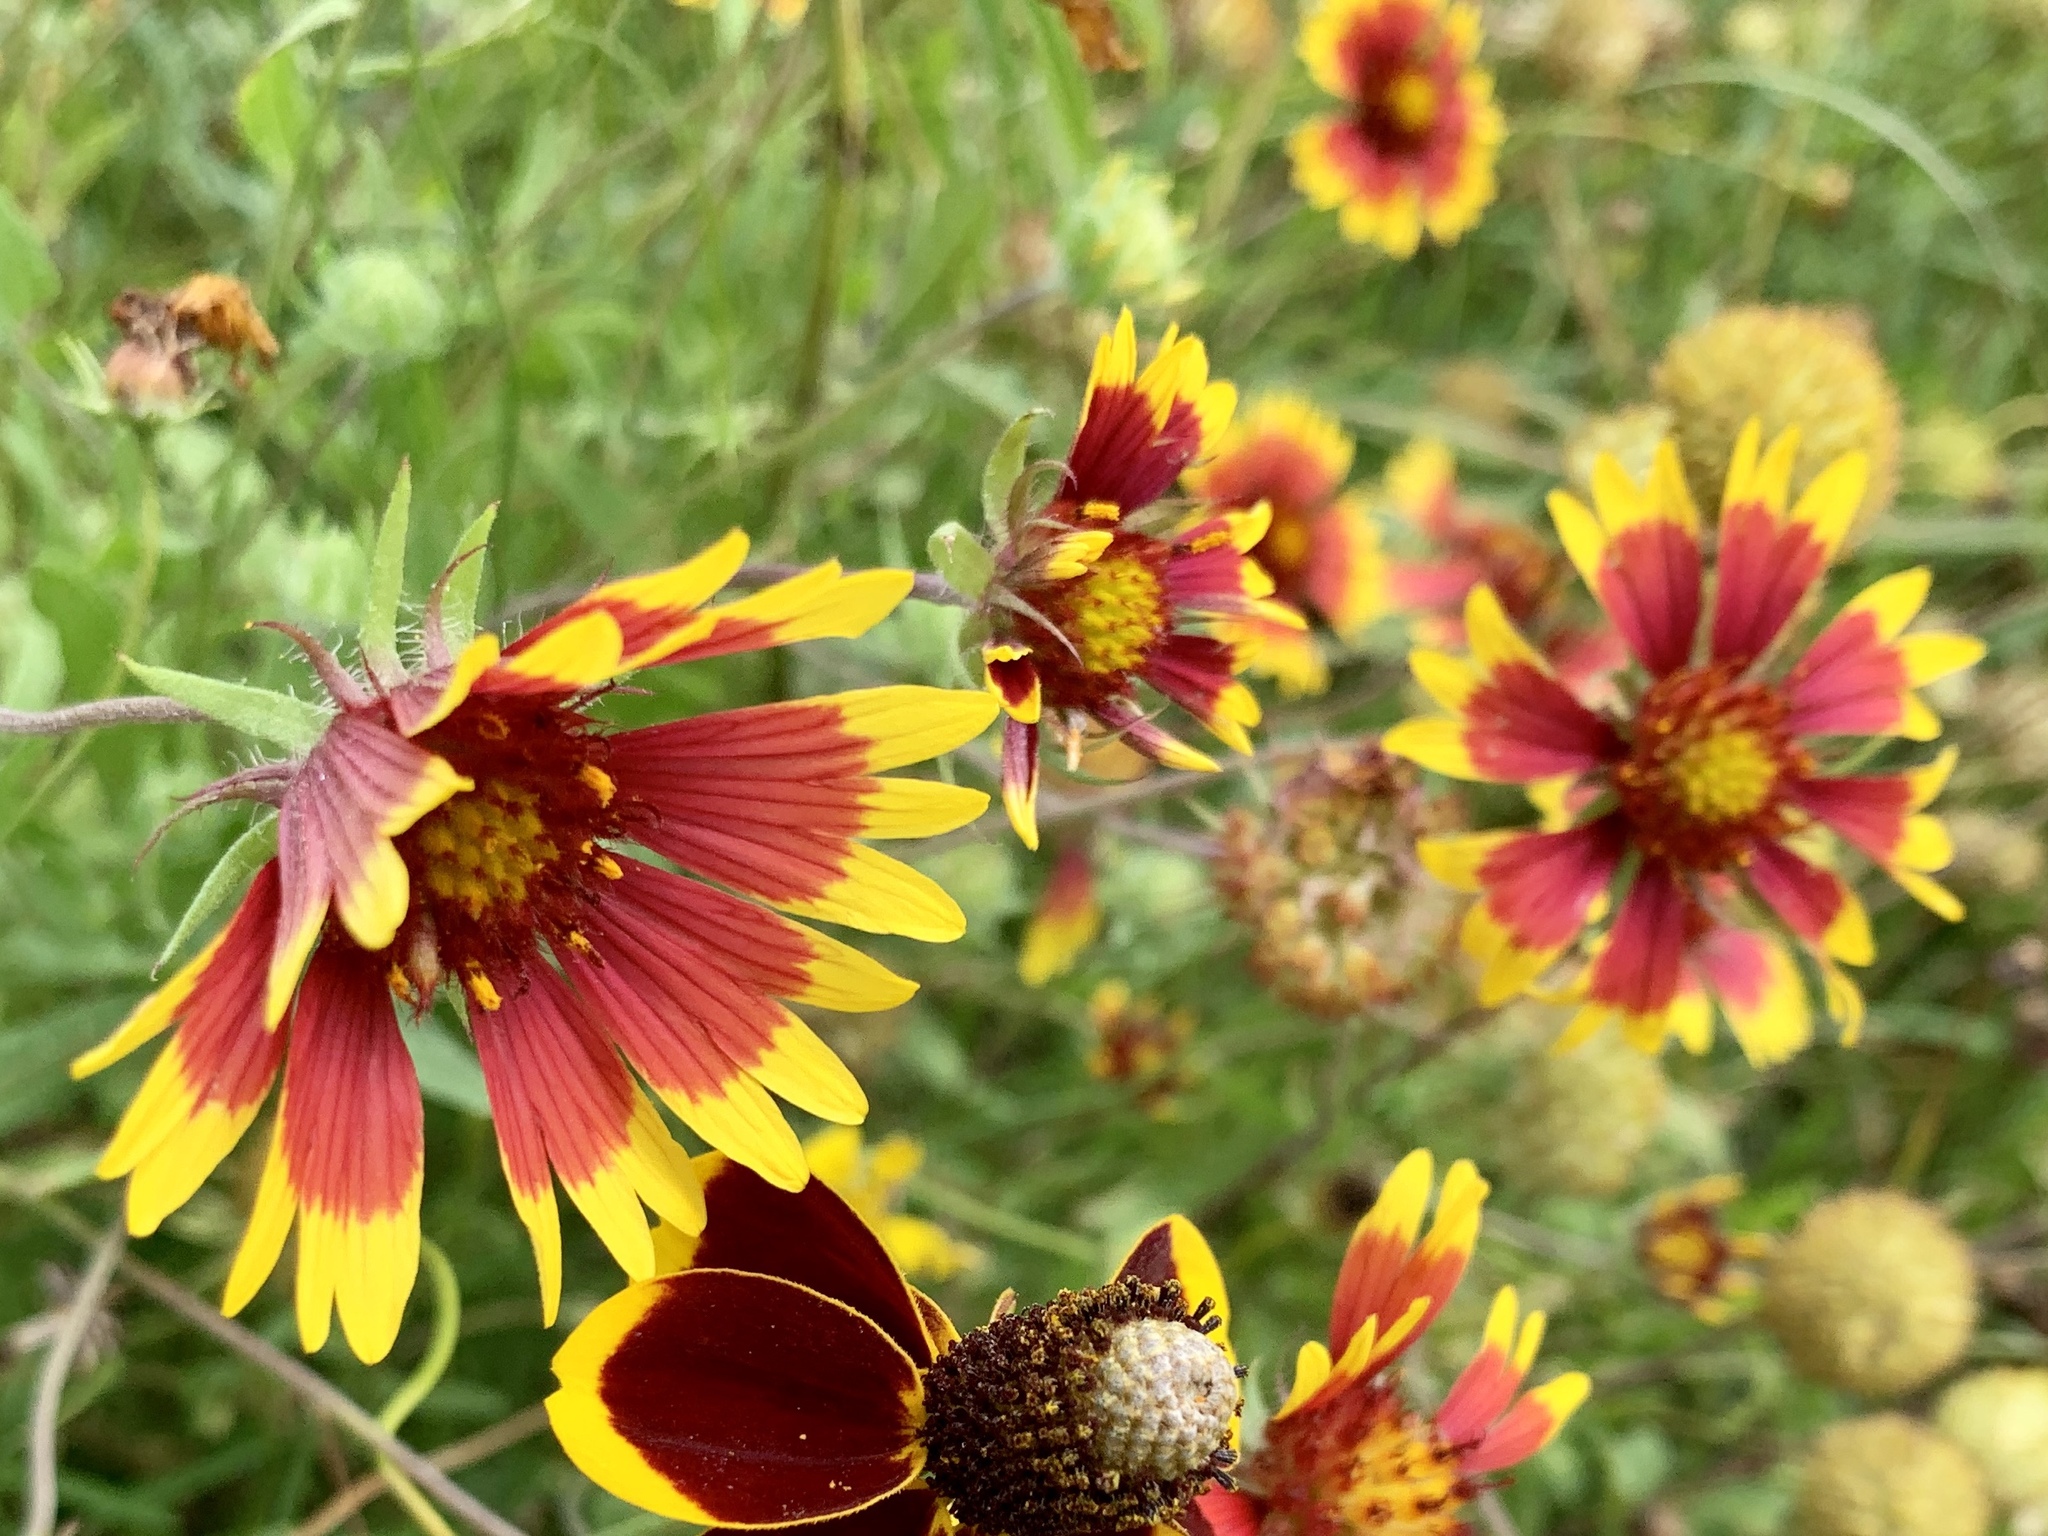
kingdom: Plantae
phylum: Tracheophyta
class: Magnoliopsida
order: Asterales
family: Asteraceae
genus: Gaillardia
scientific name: Gaillardia pulchella
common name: Firewheel
